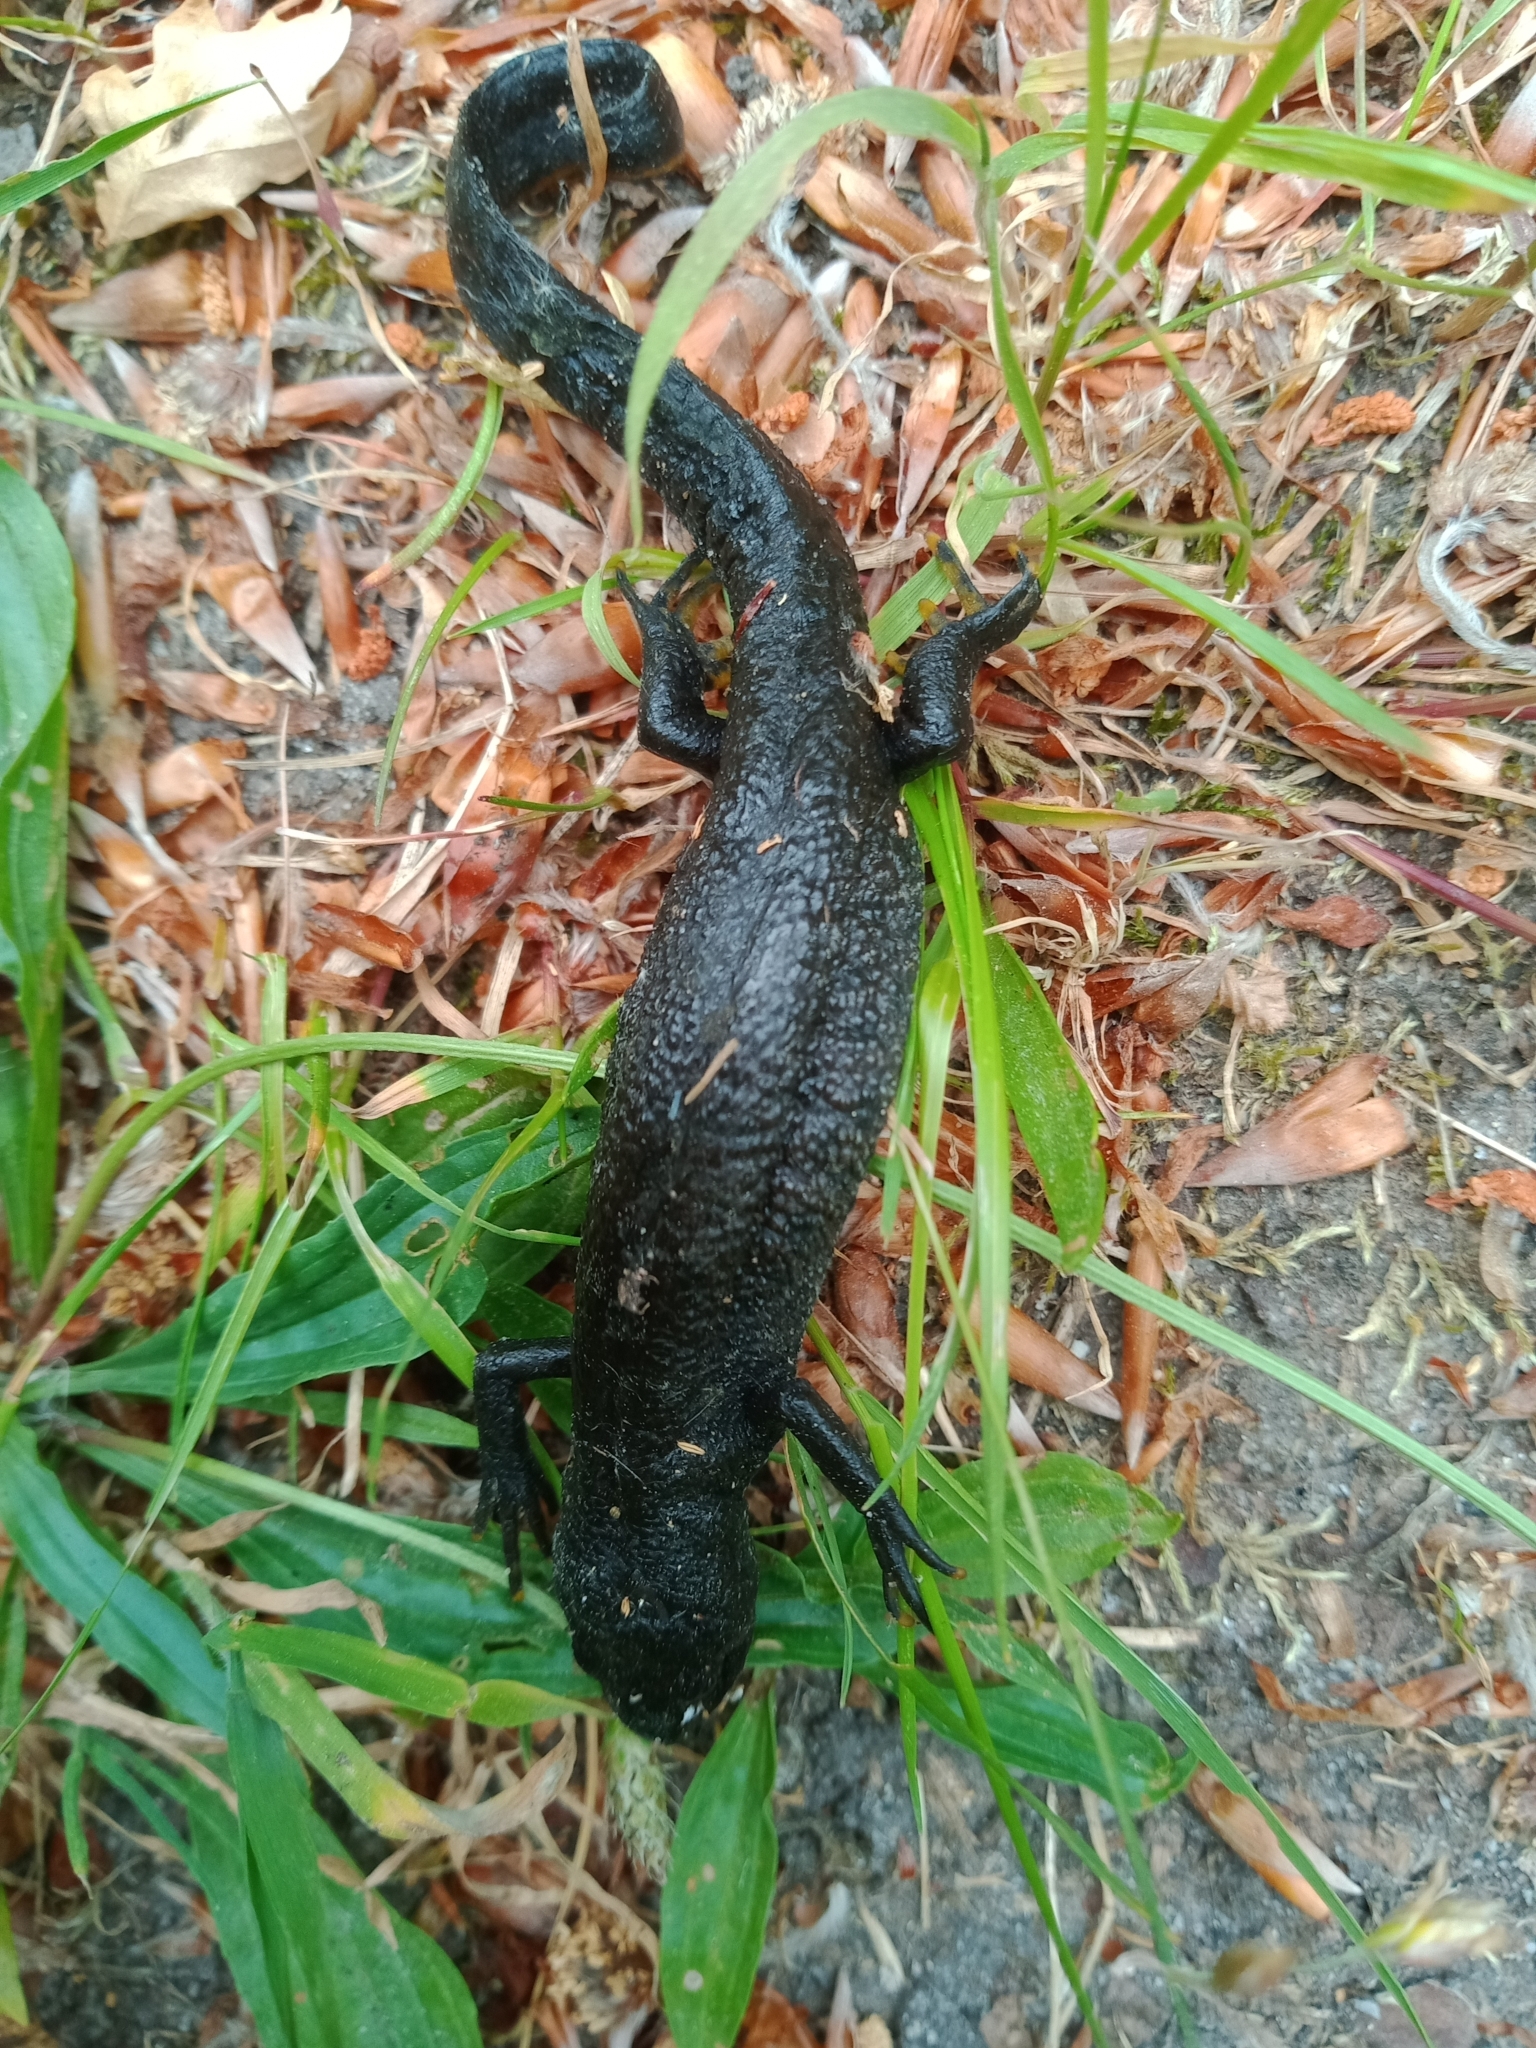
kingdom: Animalia
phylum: Chordata
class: Amphibia
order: Caudata
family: Salamandridae
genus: Triturus
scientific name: Triturus cristatus
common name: Crested newt
